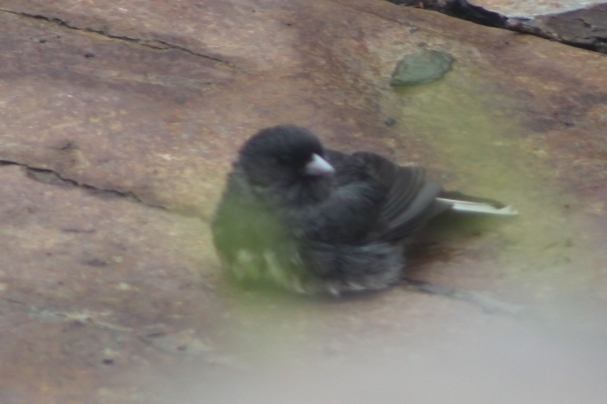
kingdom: Animalia
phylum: Chordata
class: Aves
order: Passeriformes
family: Passerellidae
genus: Junco
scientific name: Junco hyemalis
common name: Dark-eyed junco
